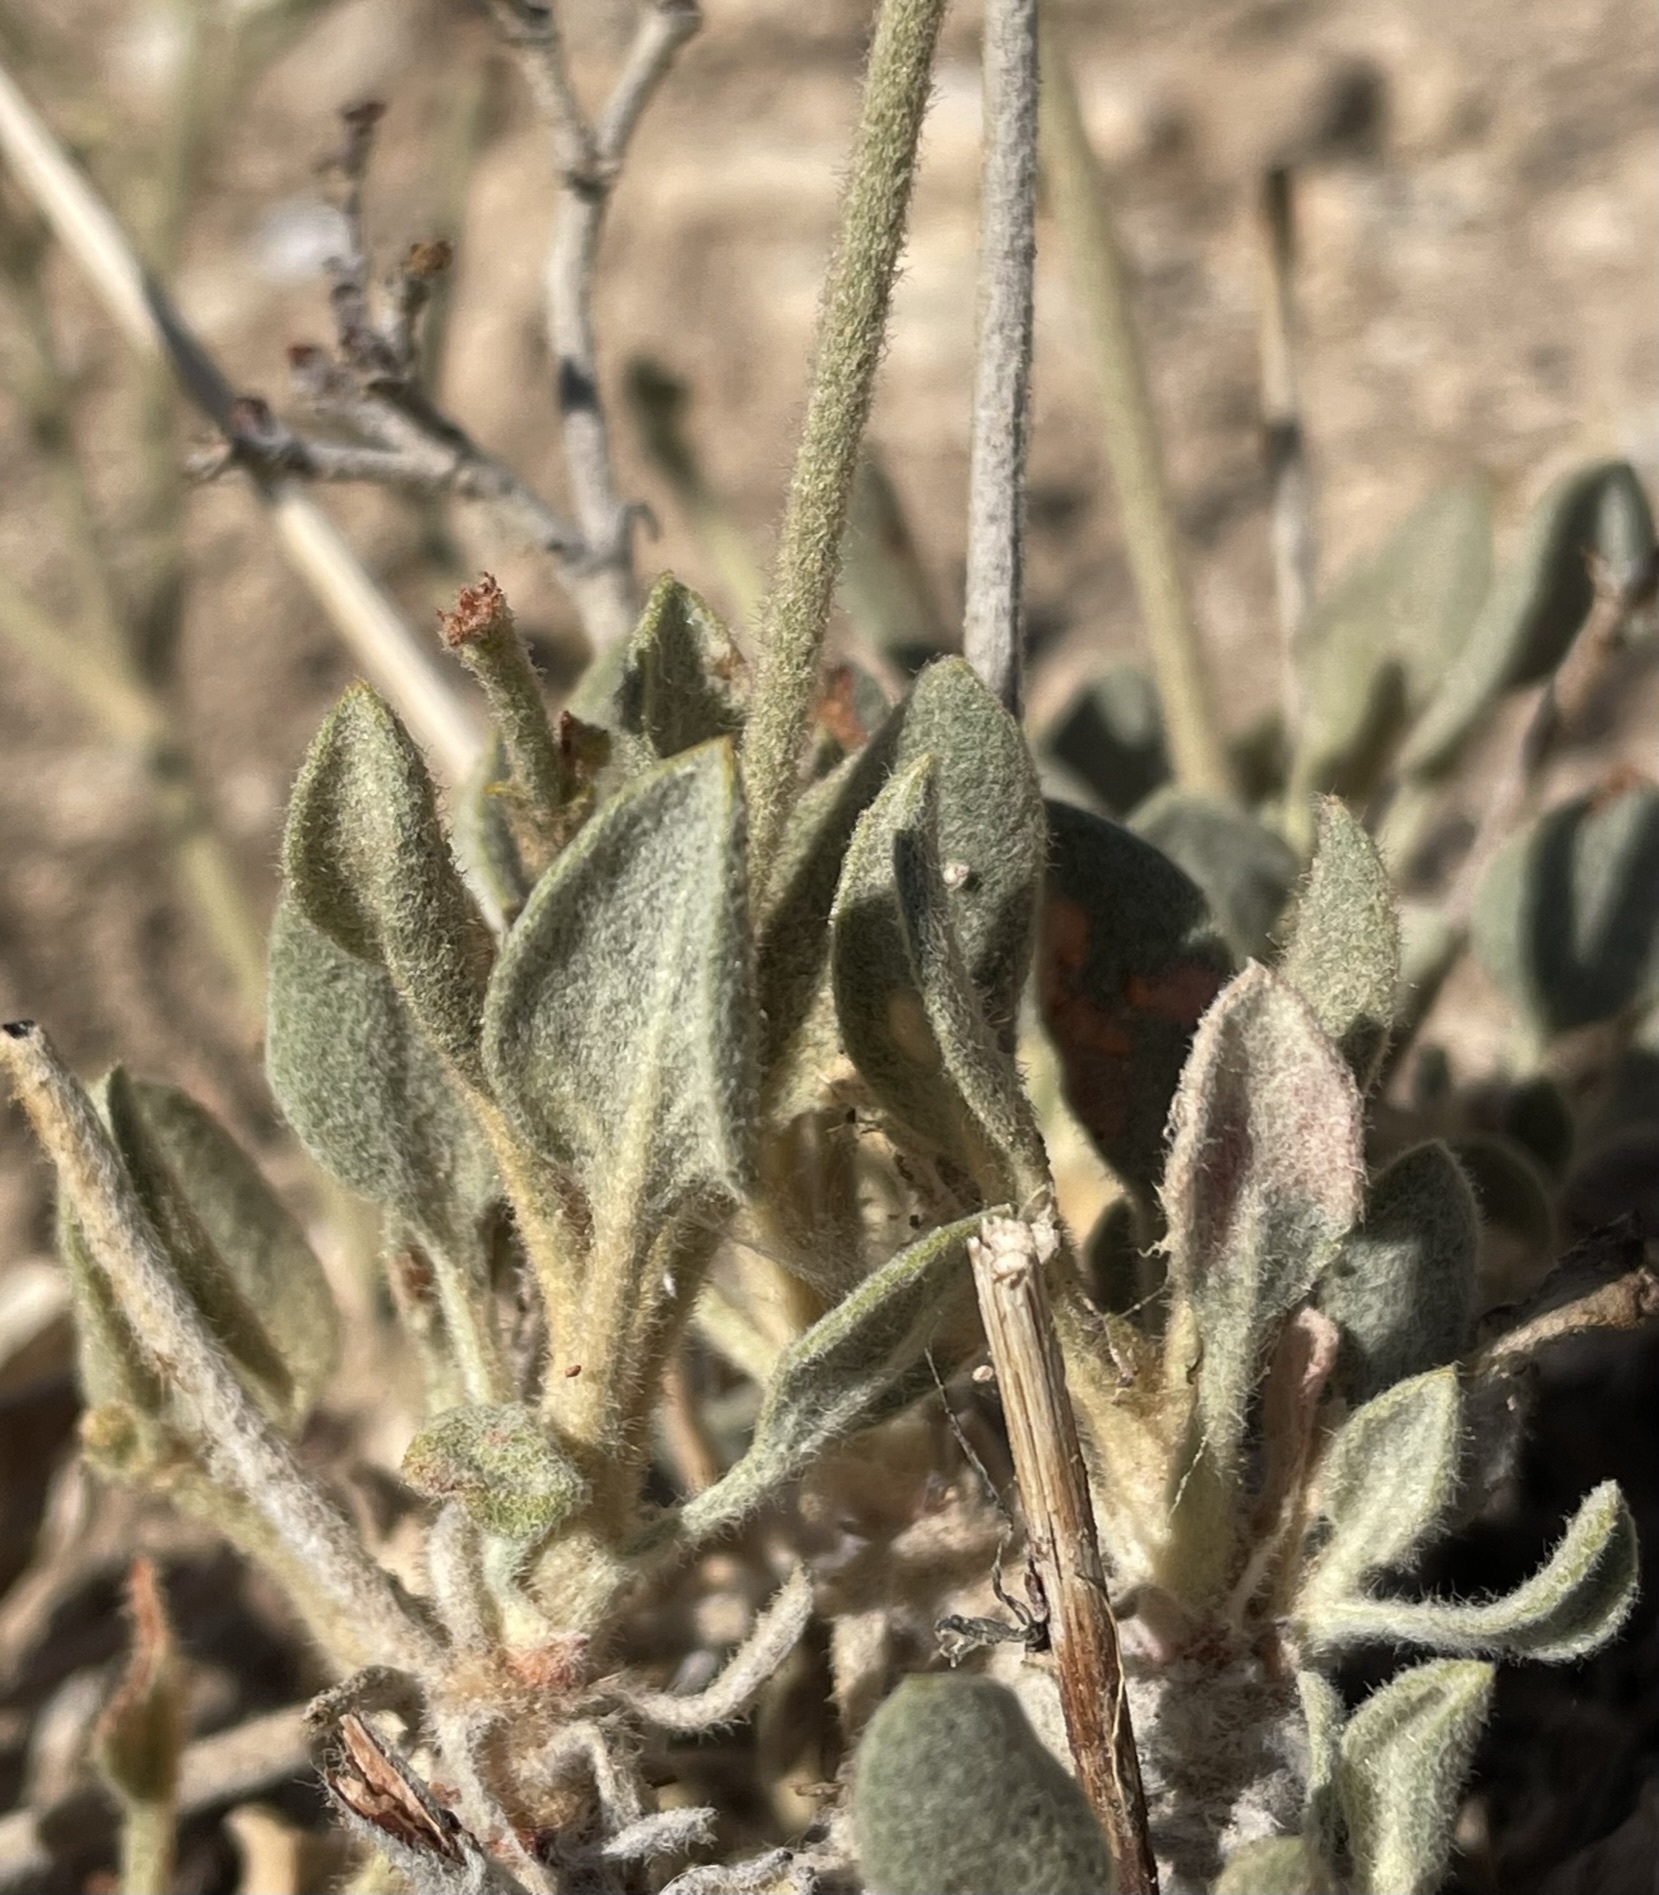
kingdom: Plantae
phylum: Tracheophyta
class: Magnoliopsida
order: Caryophyllales
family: Polygonaceae
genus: Eriogonum
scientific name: Eriogonum jonesii
